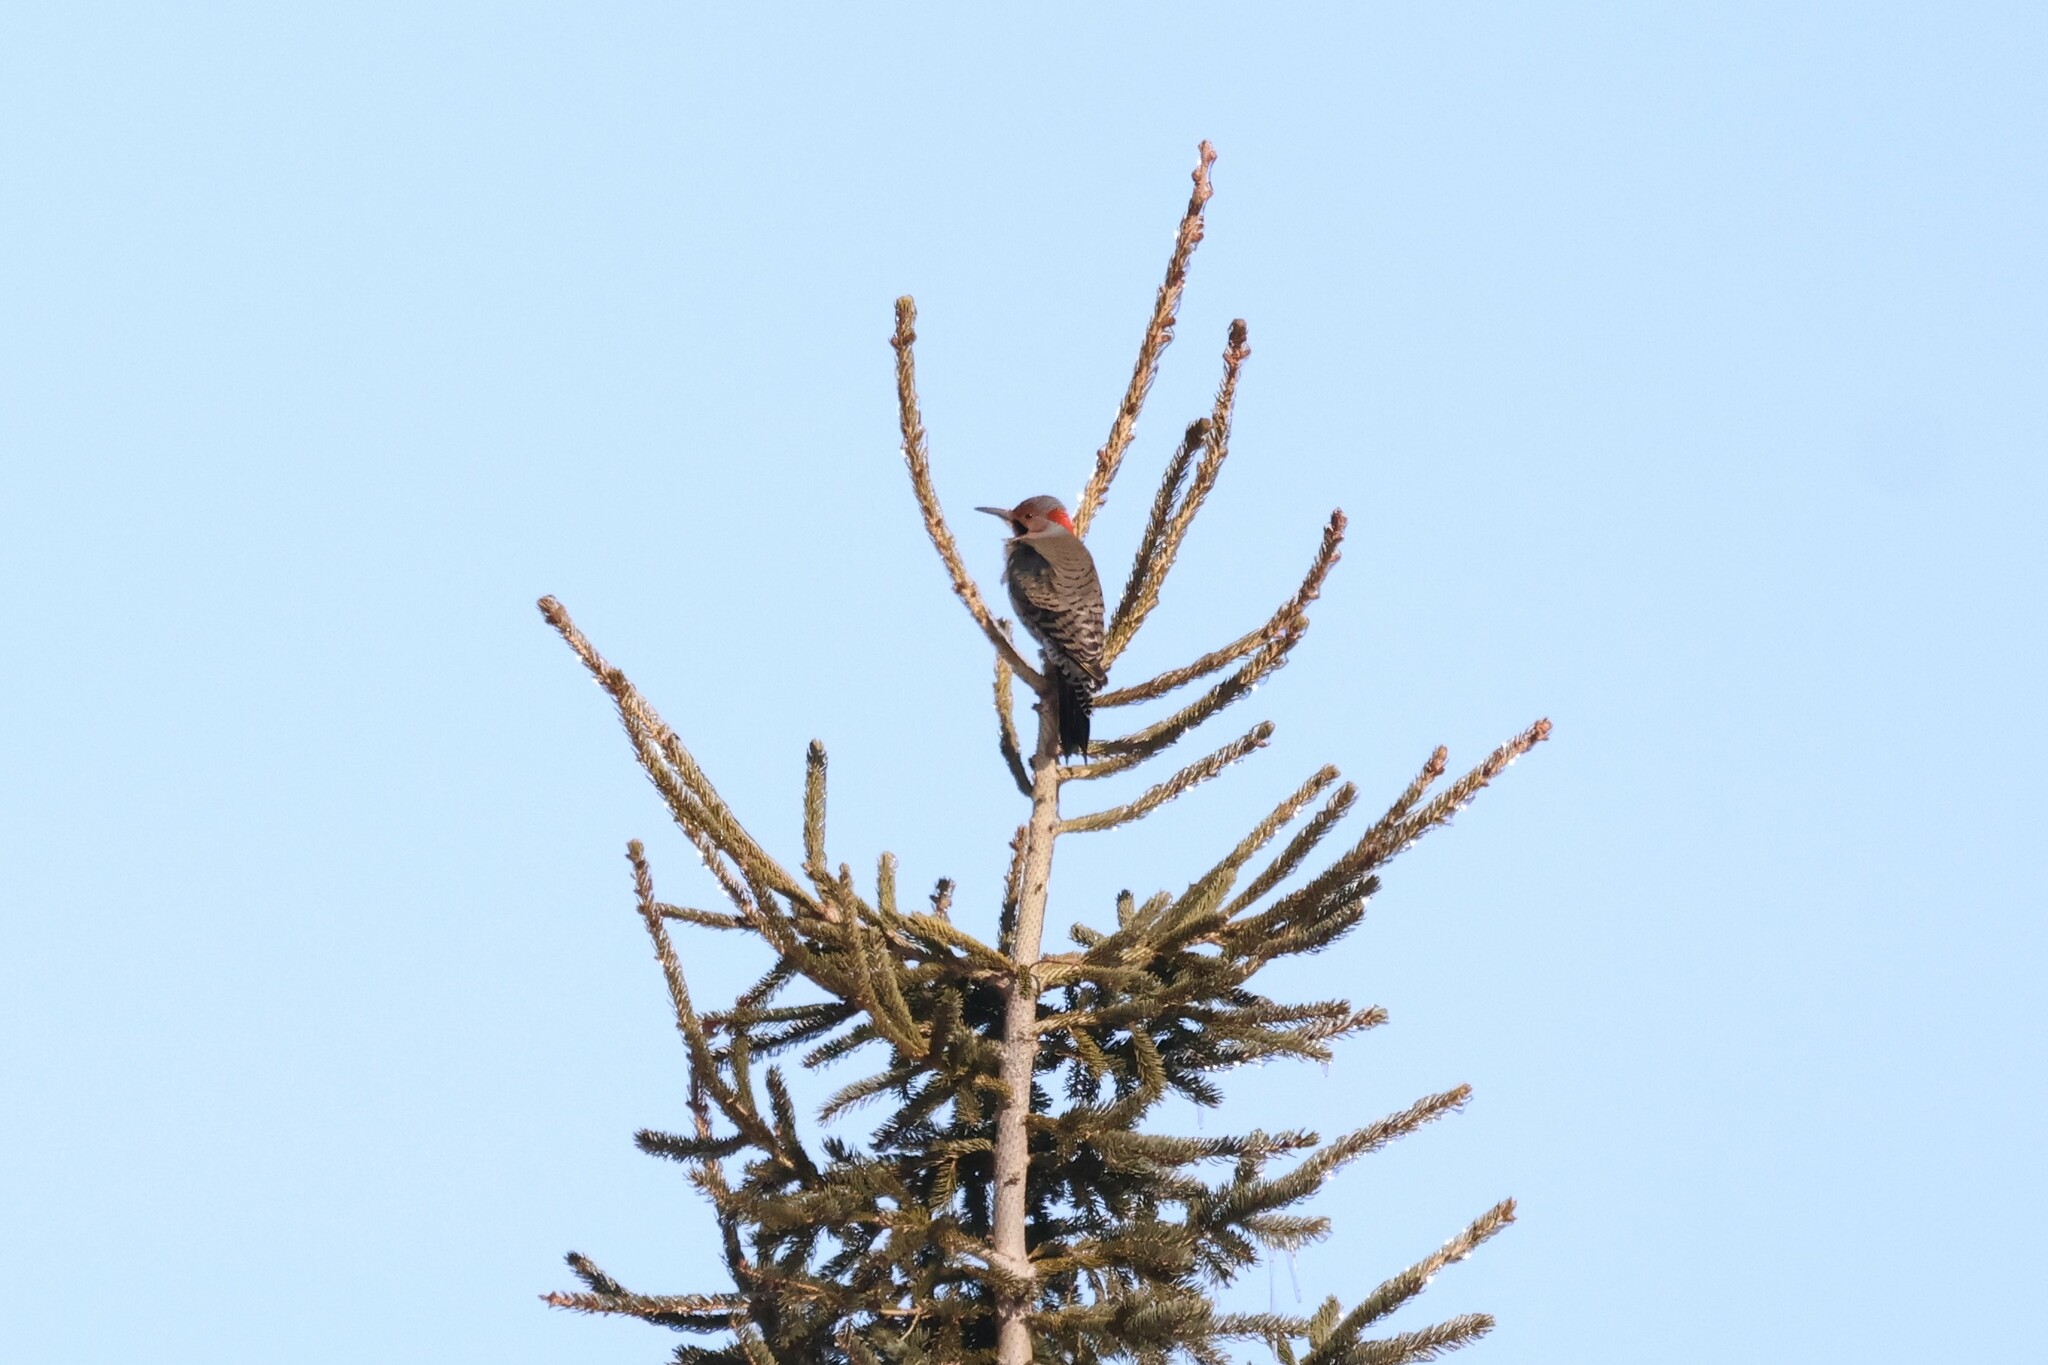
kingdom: Animalia
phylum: Chordata
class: Aves
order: Piciformes
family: Picidae
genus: Colaptes
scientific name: Colaptes auratus
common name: Northern flicker
